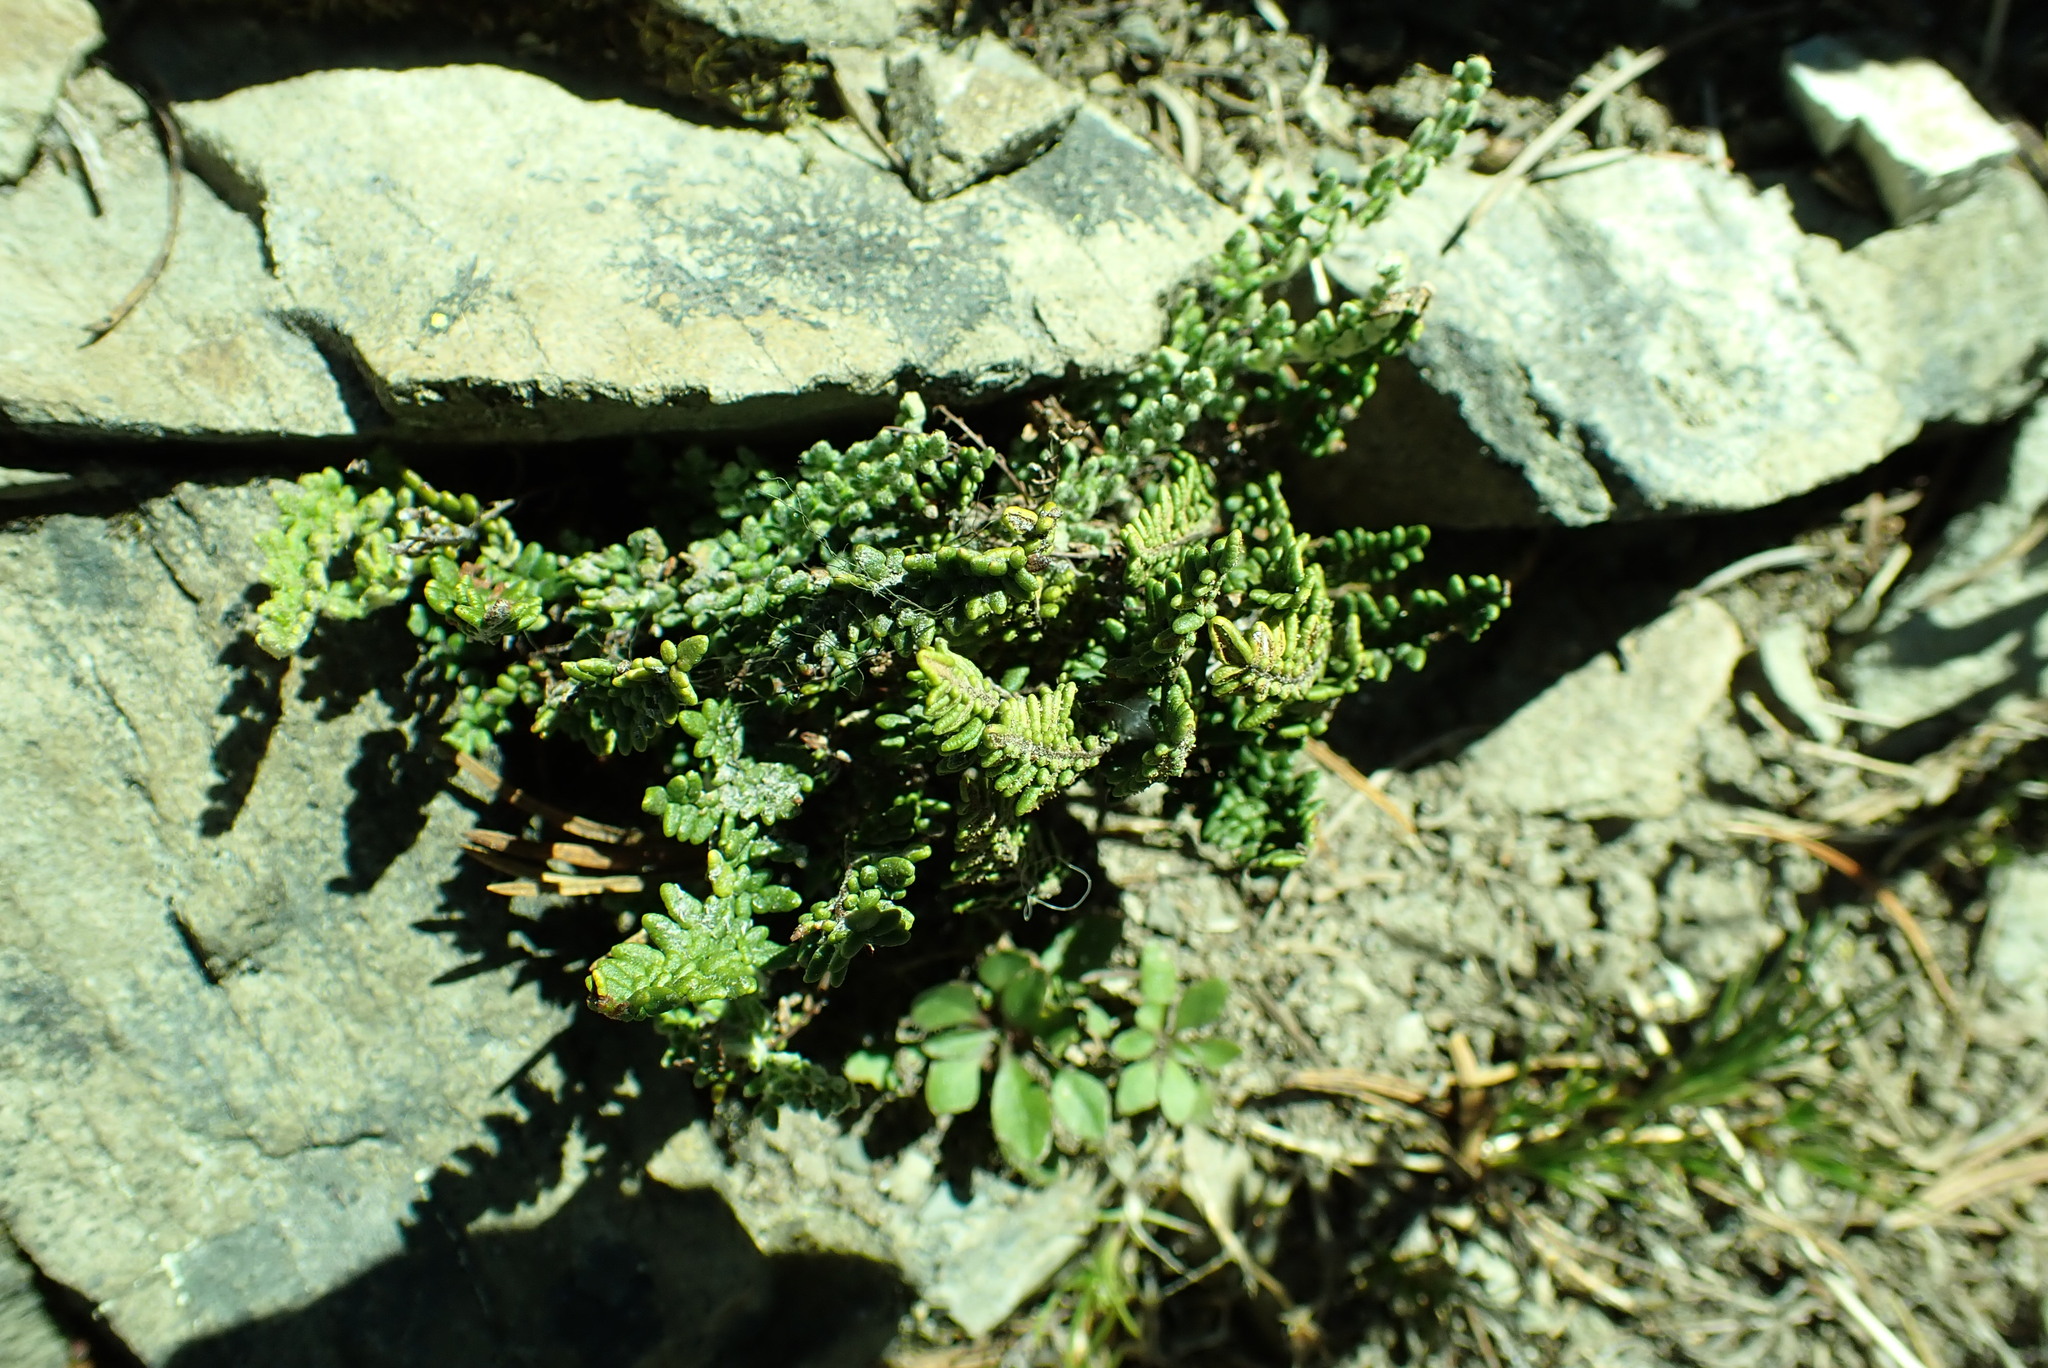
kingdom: Plantae
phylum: Tracheophyta
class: Polypodiopsida
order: Polypodiales
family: Pteridaceae
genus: Myriopteris
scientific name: Myriopteris gracillima
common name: Lace fern
